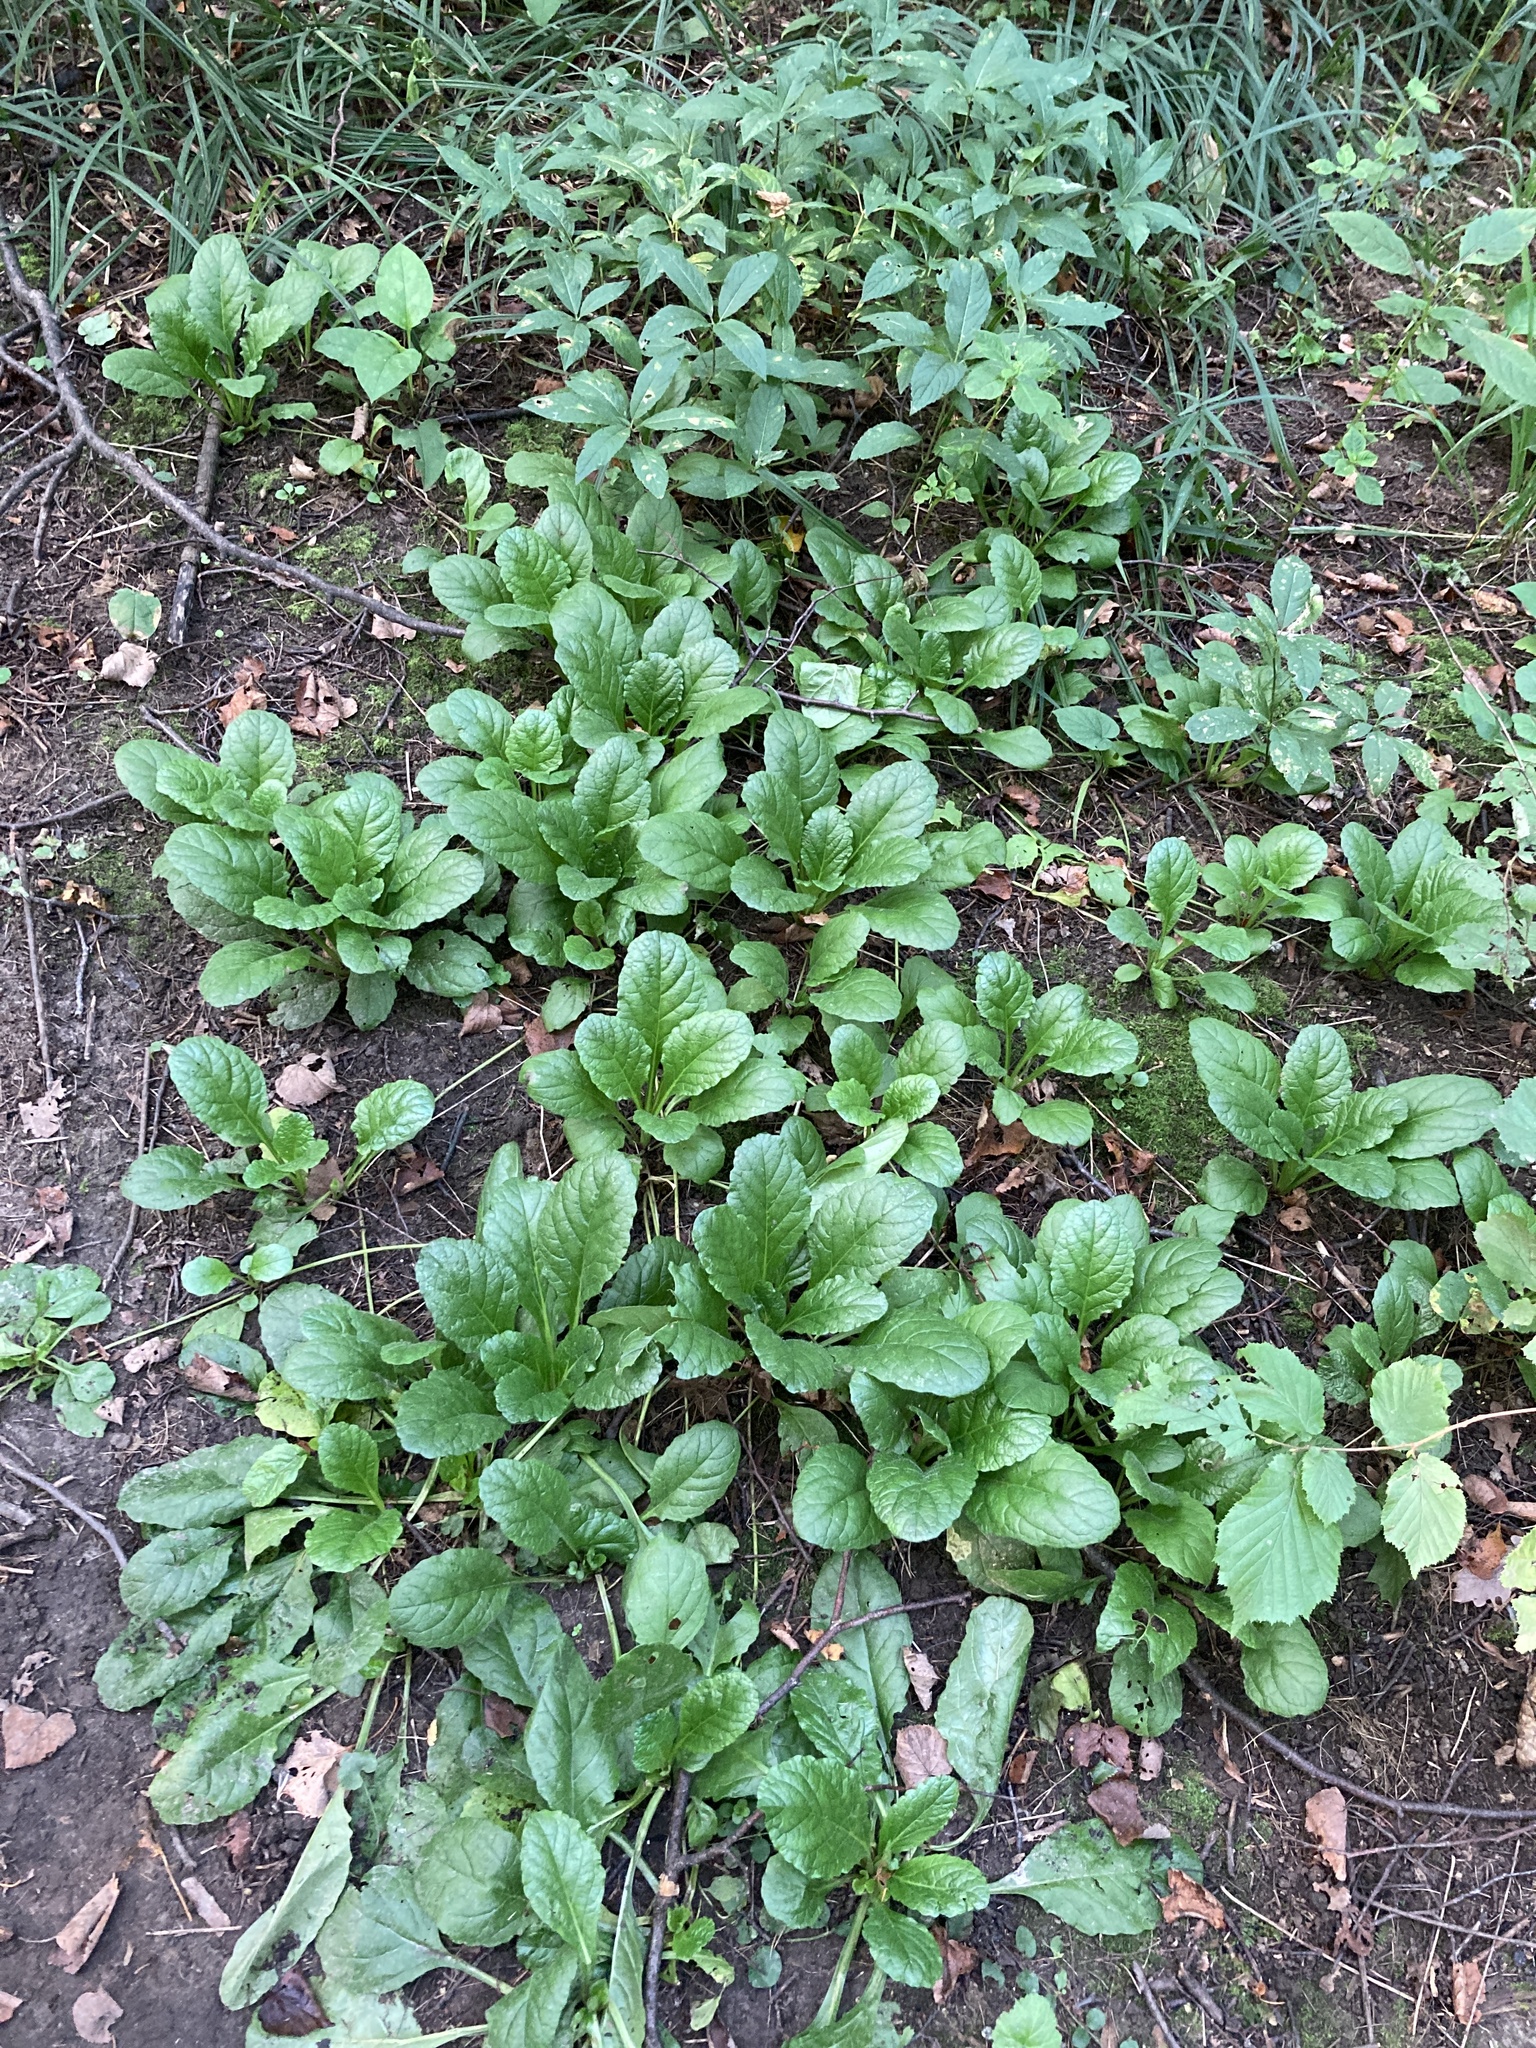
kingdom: Plantae
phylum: Tracheophyta
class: Magnoliopsida
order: Lamiales
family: Lamiaceae
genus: Ajuga
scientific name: Ajuga reptans
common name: Bugle
